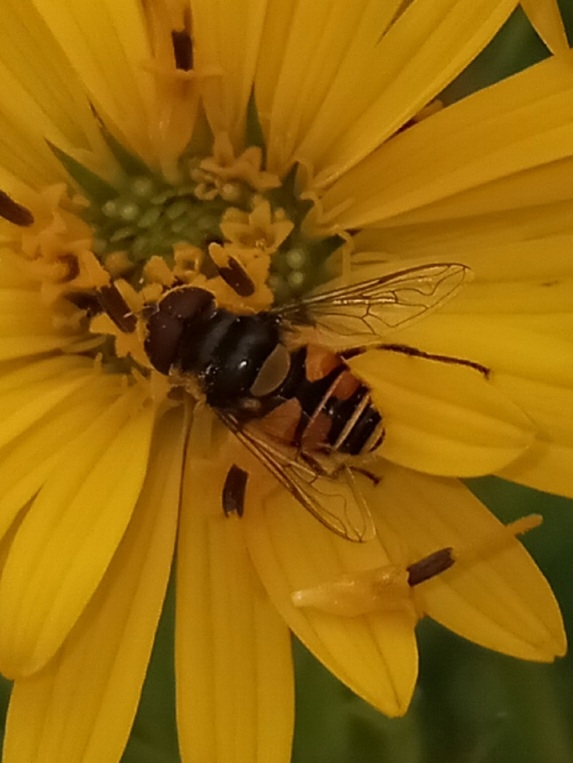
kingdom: Animalia
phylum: Arthropoda
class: Insecta
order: Diptera
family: Syrphidae
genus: Eristalis
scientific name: Eristalis transversa
